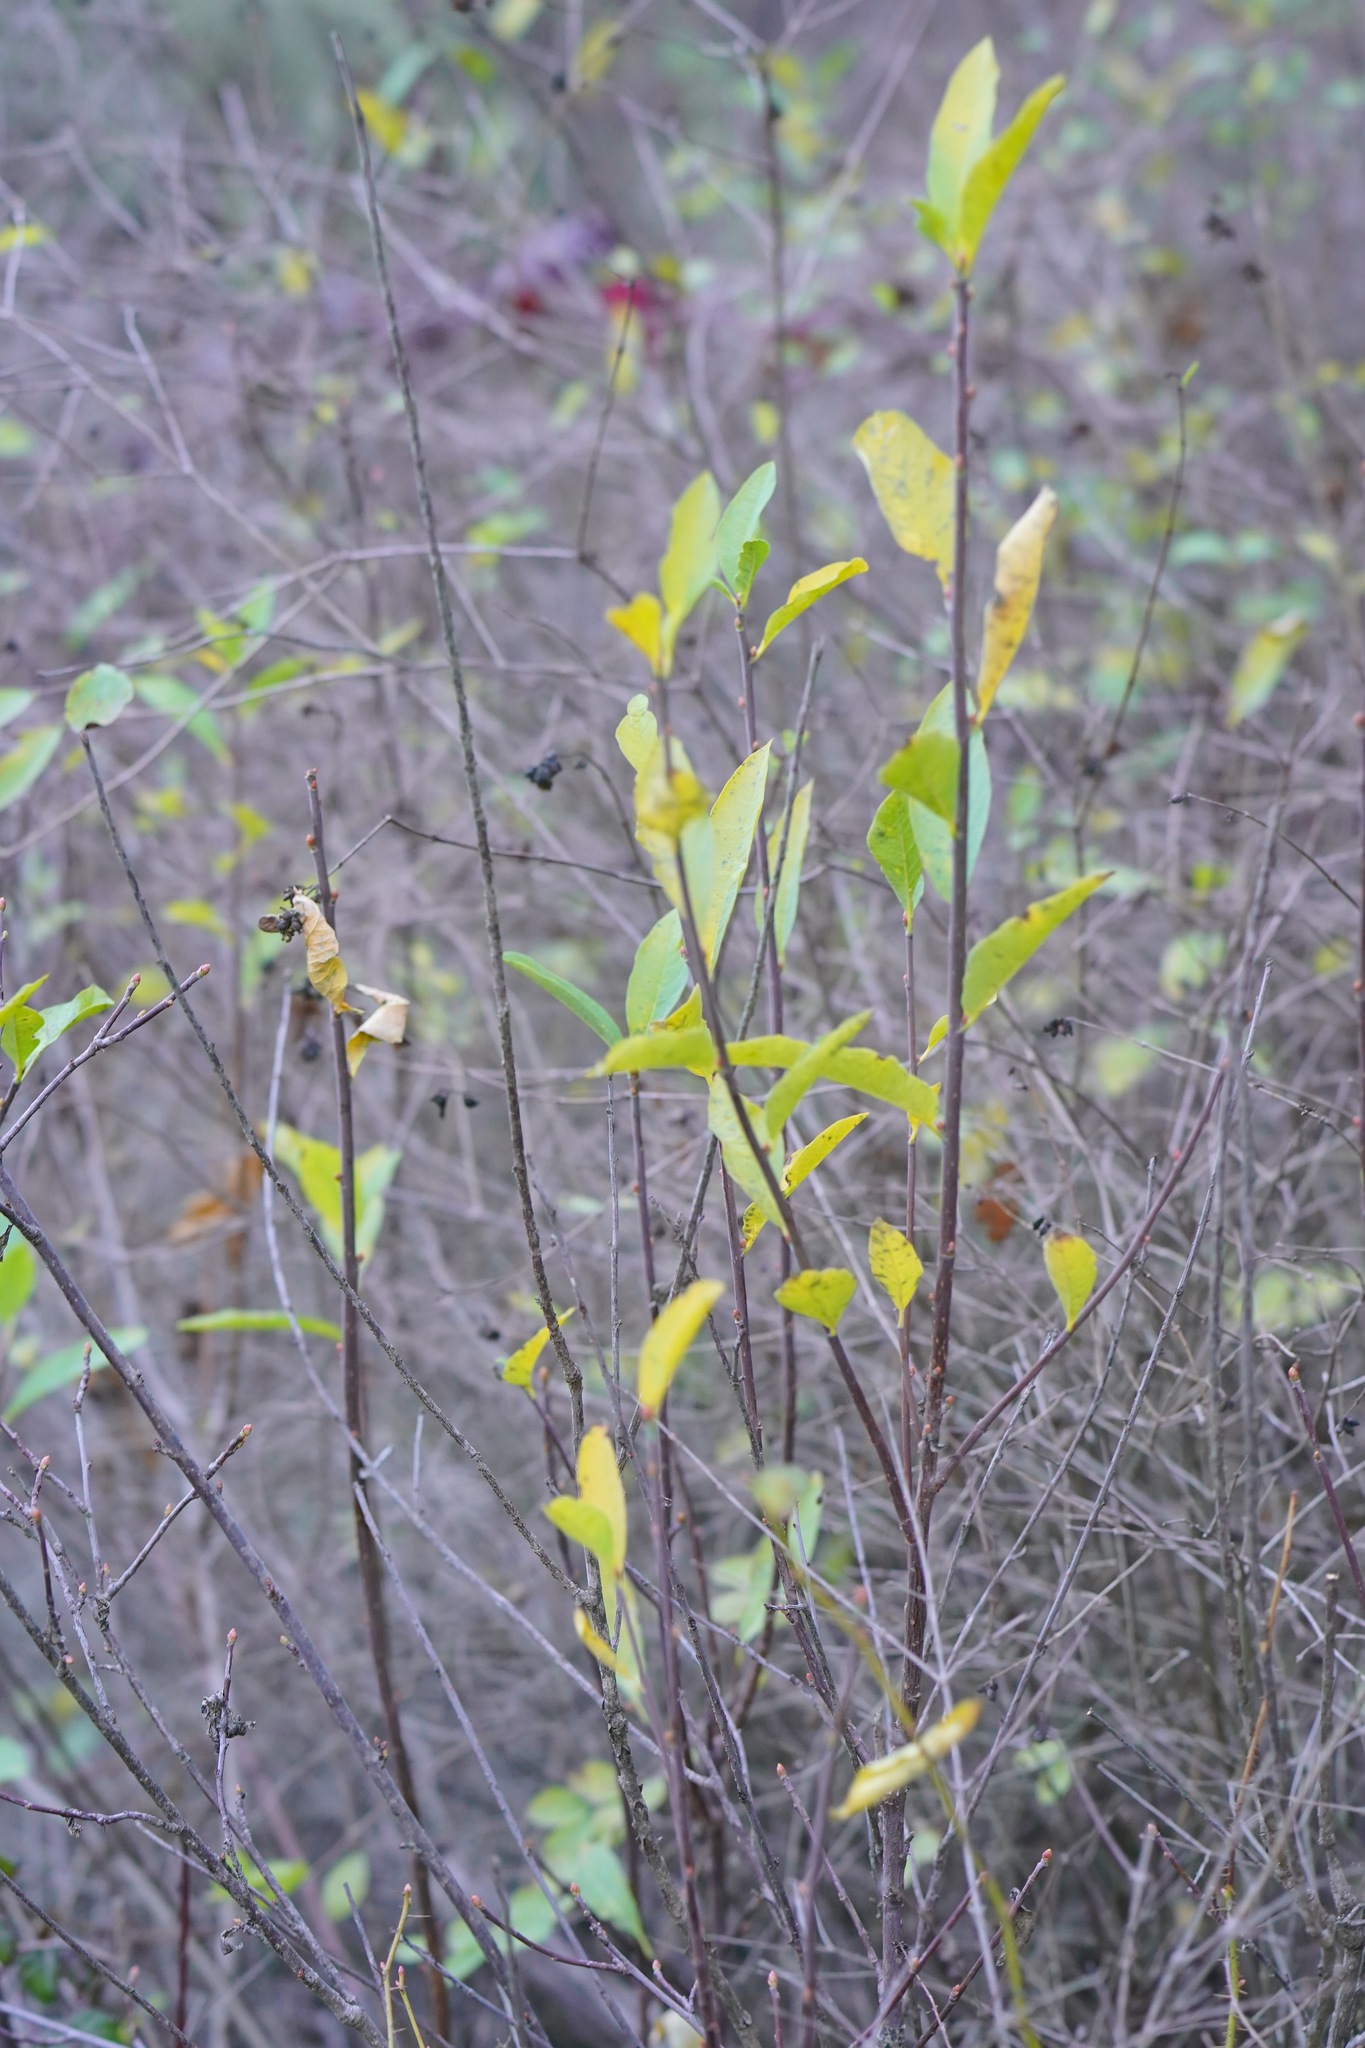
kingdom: Plantae
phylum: Tracheophyta
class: Magnoliopsida
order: Rosales
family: Rosaceae
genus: Oemleria
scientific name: Oemleria cerasiformis
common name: Osoberry
